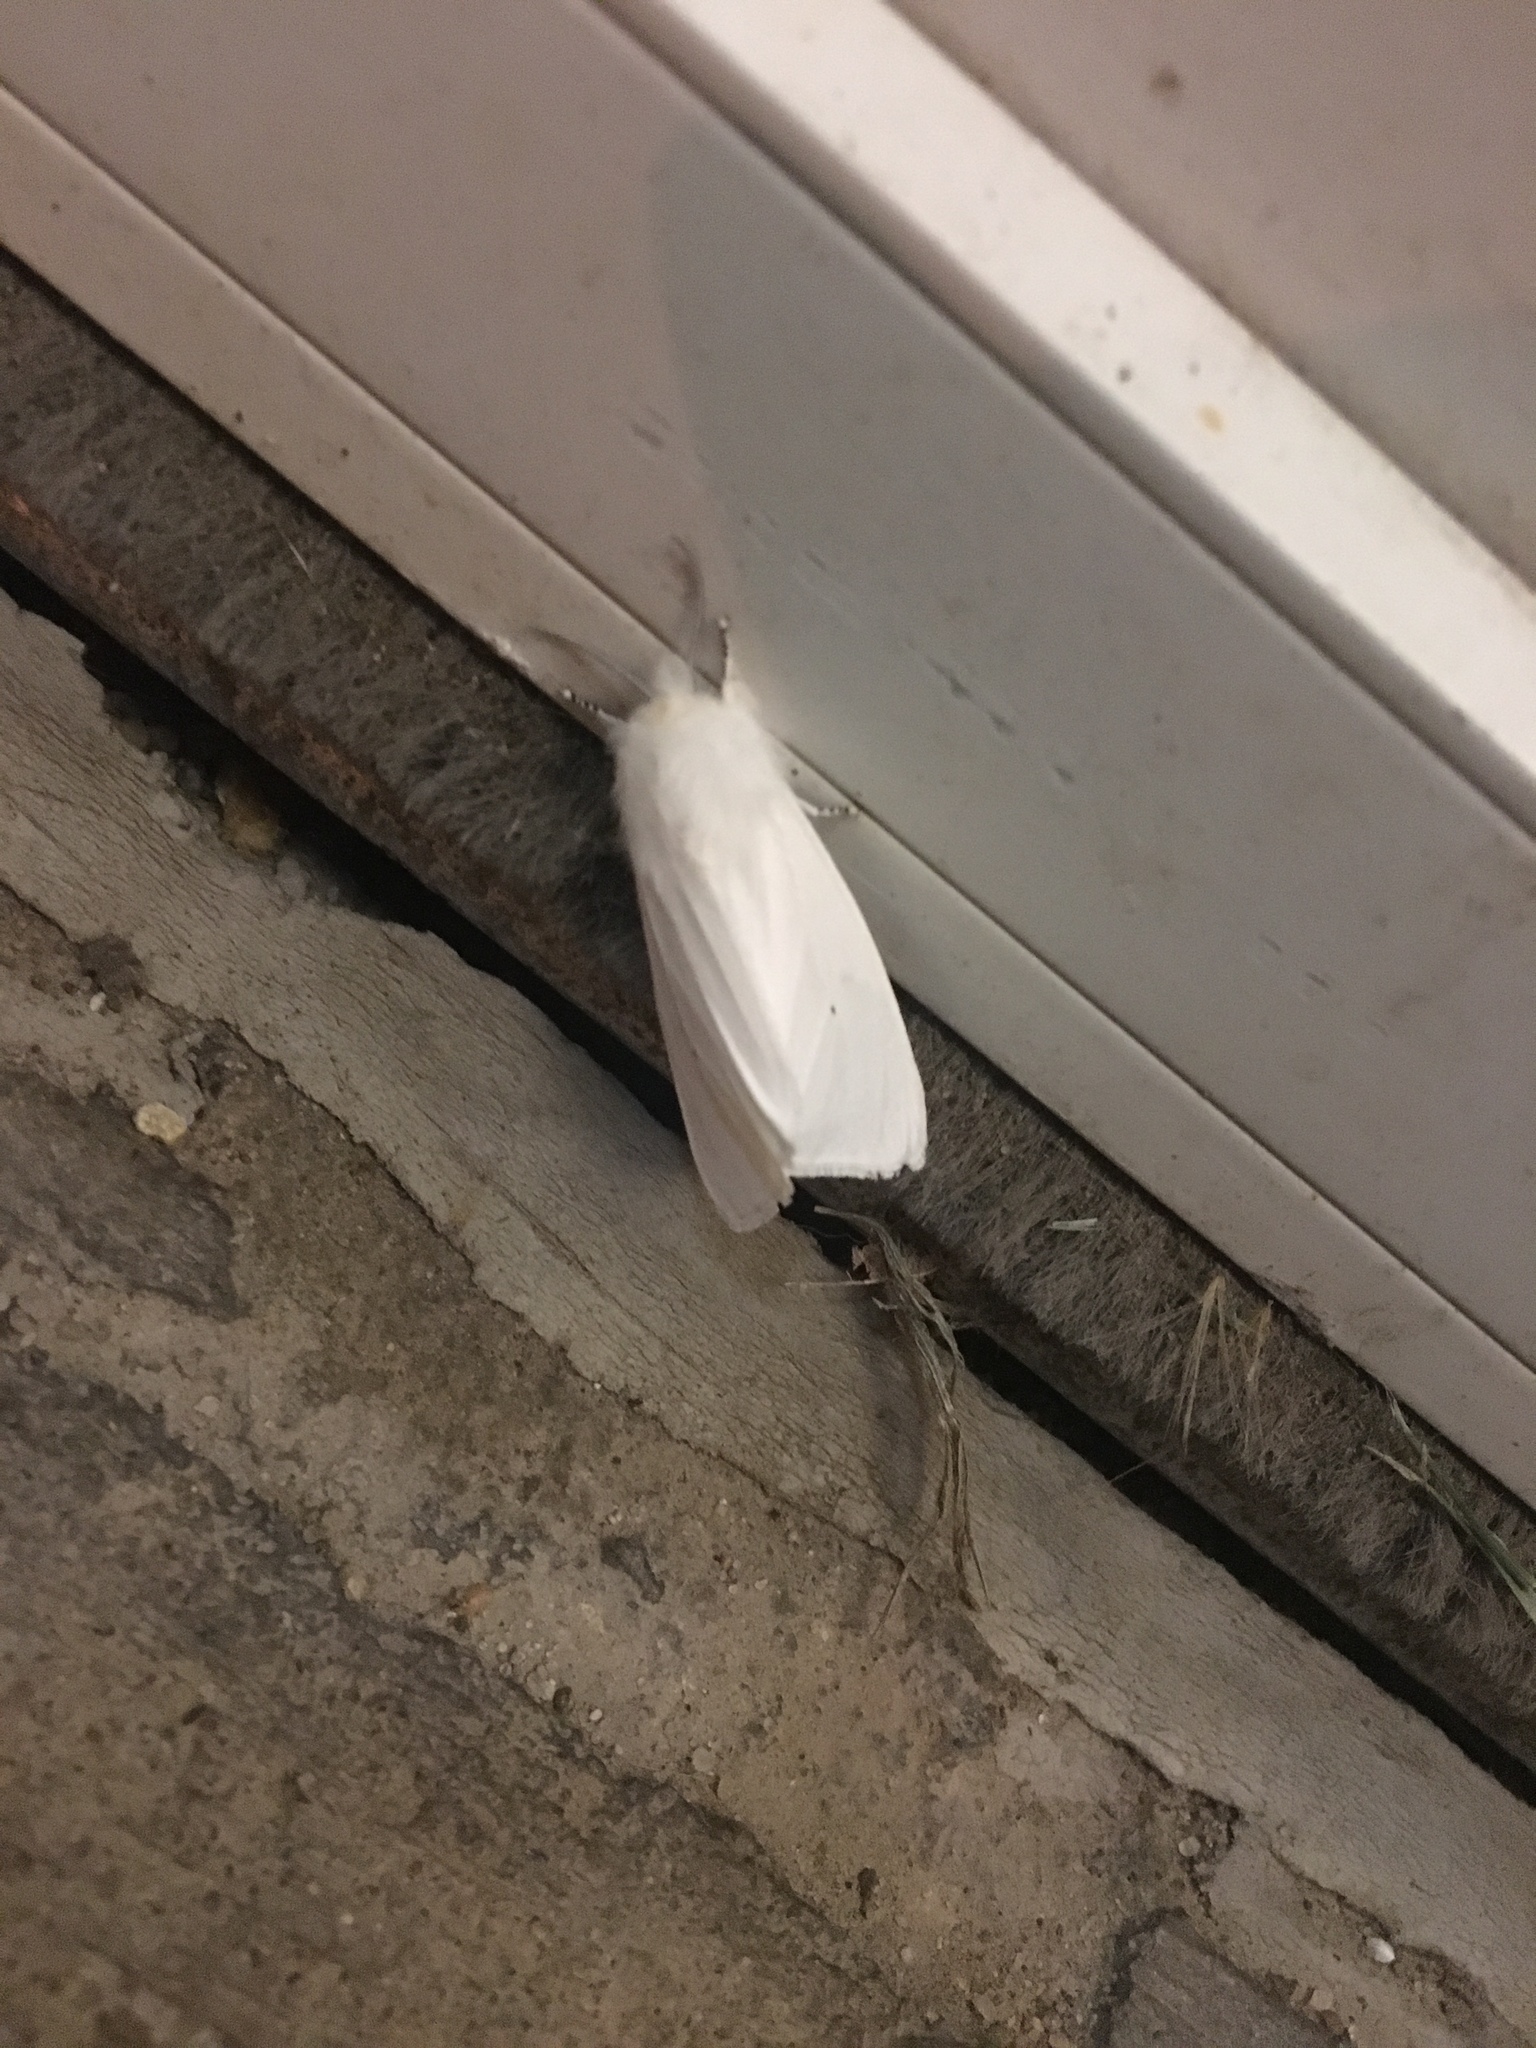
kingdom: Animalia
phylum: Arthropoda
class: Insecta
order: Lepidoptera
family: Erebidae
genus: Spilosoma
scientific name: Spilosoma virginica
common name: Virginia tiger moth
